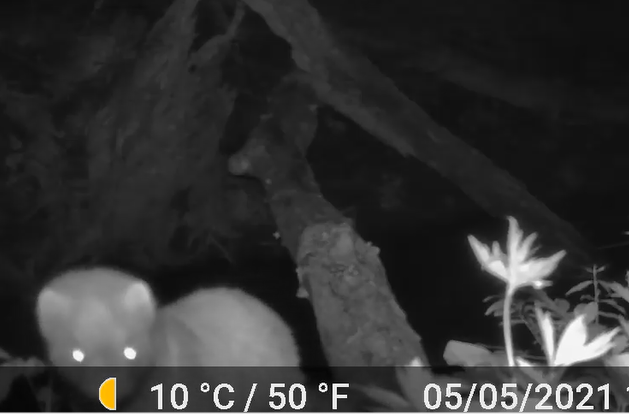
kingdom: Animalia
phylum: Chordata
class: Mammalia
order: Carnivora
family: Mustelidae
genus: Mustela
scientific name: Mustela
